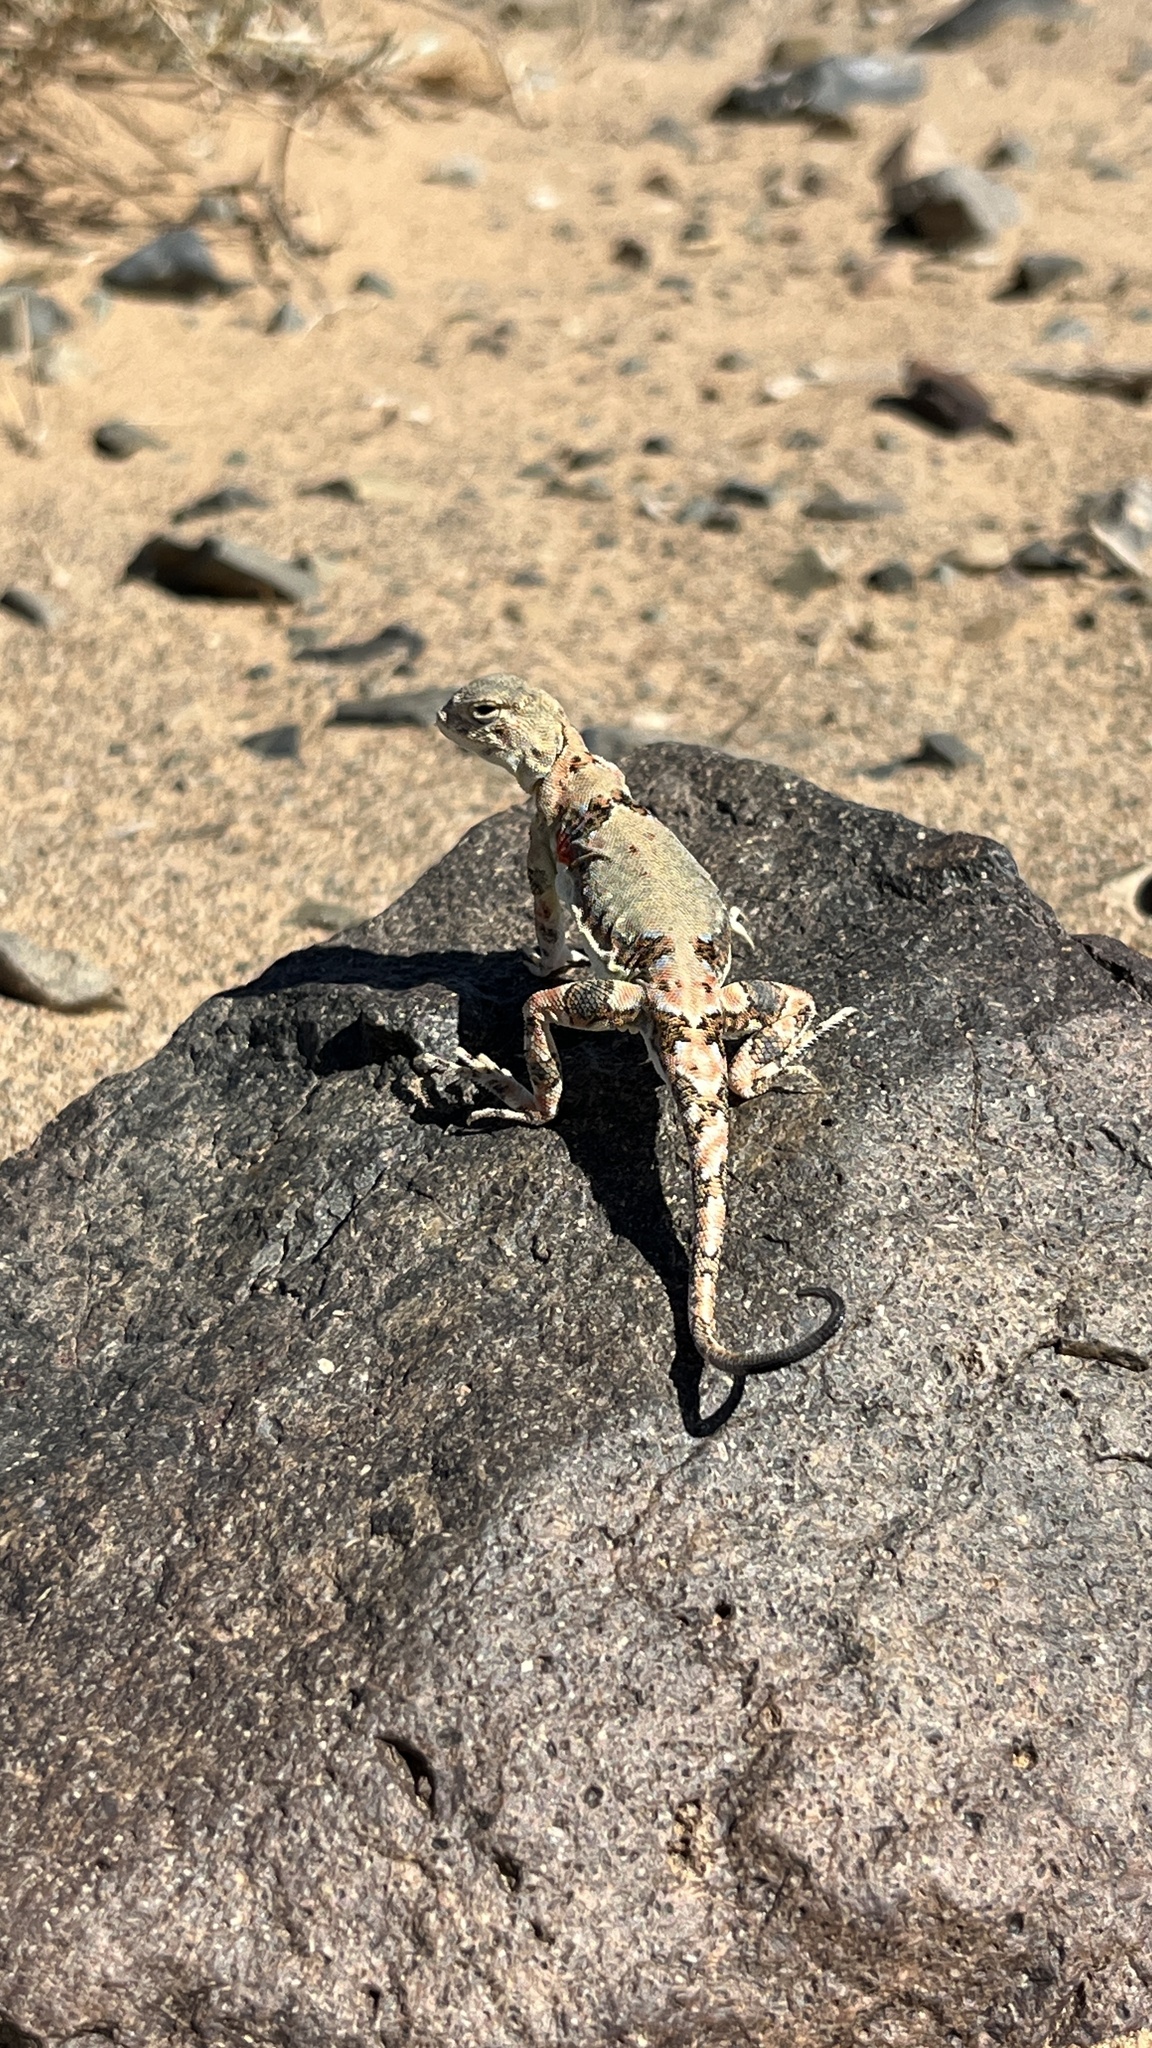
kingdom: Animalia
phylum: Chordata
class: Squamata
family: Agamidae
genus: Phrynocephalus
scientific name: Phrynocephalus versicolor
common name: Tuvan toad-headed agama
